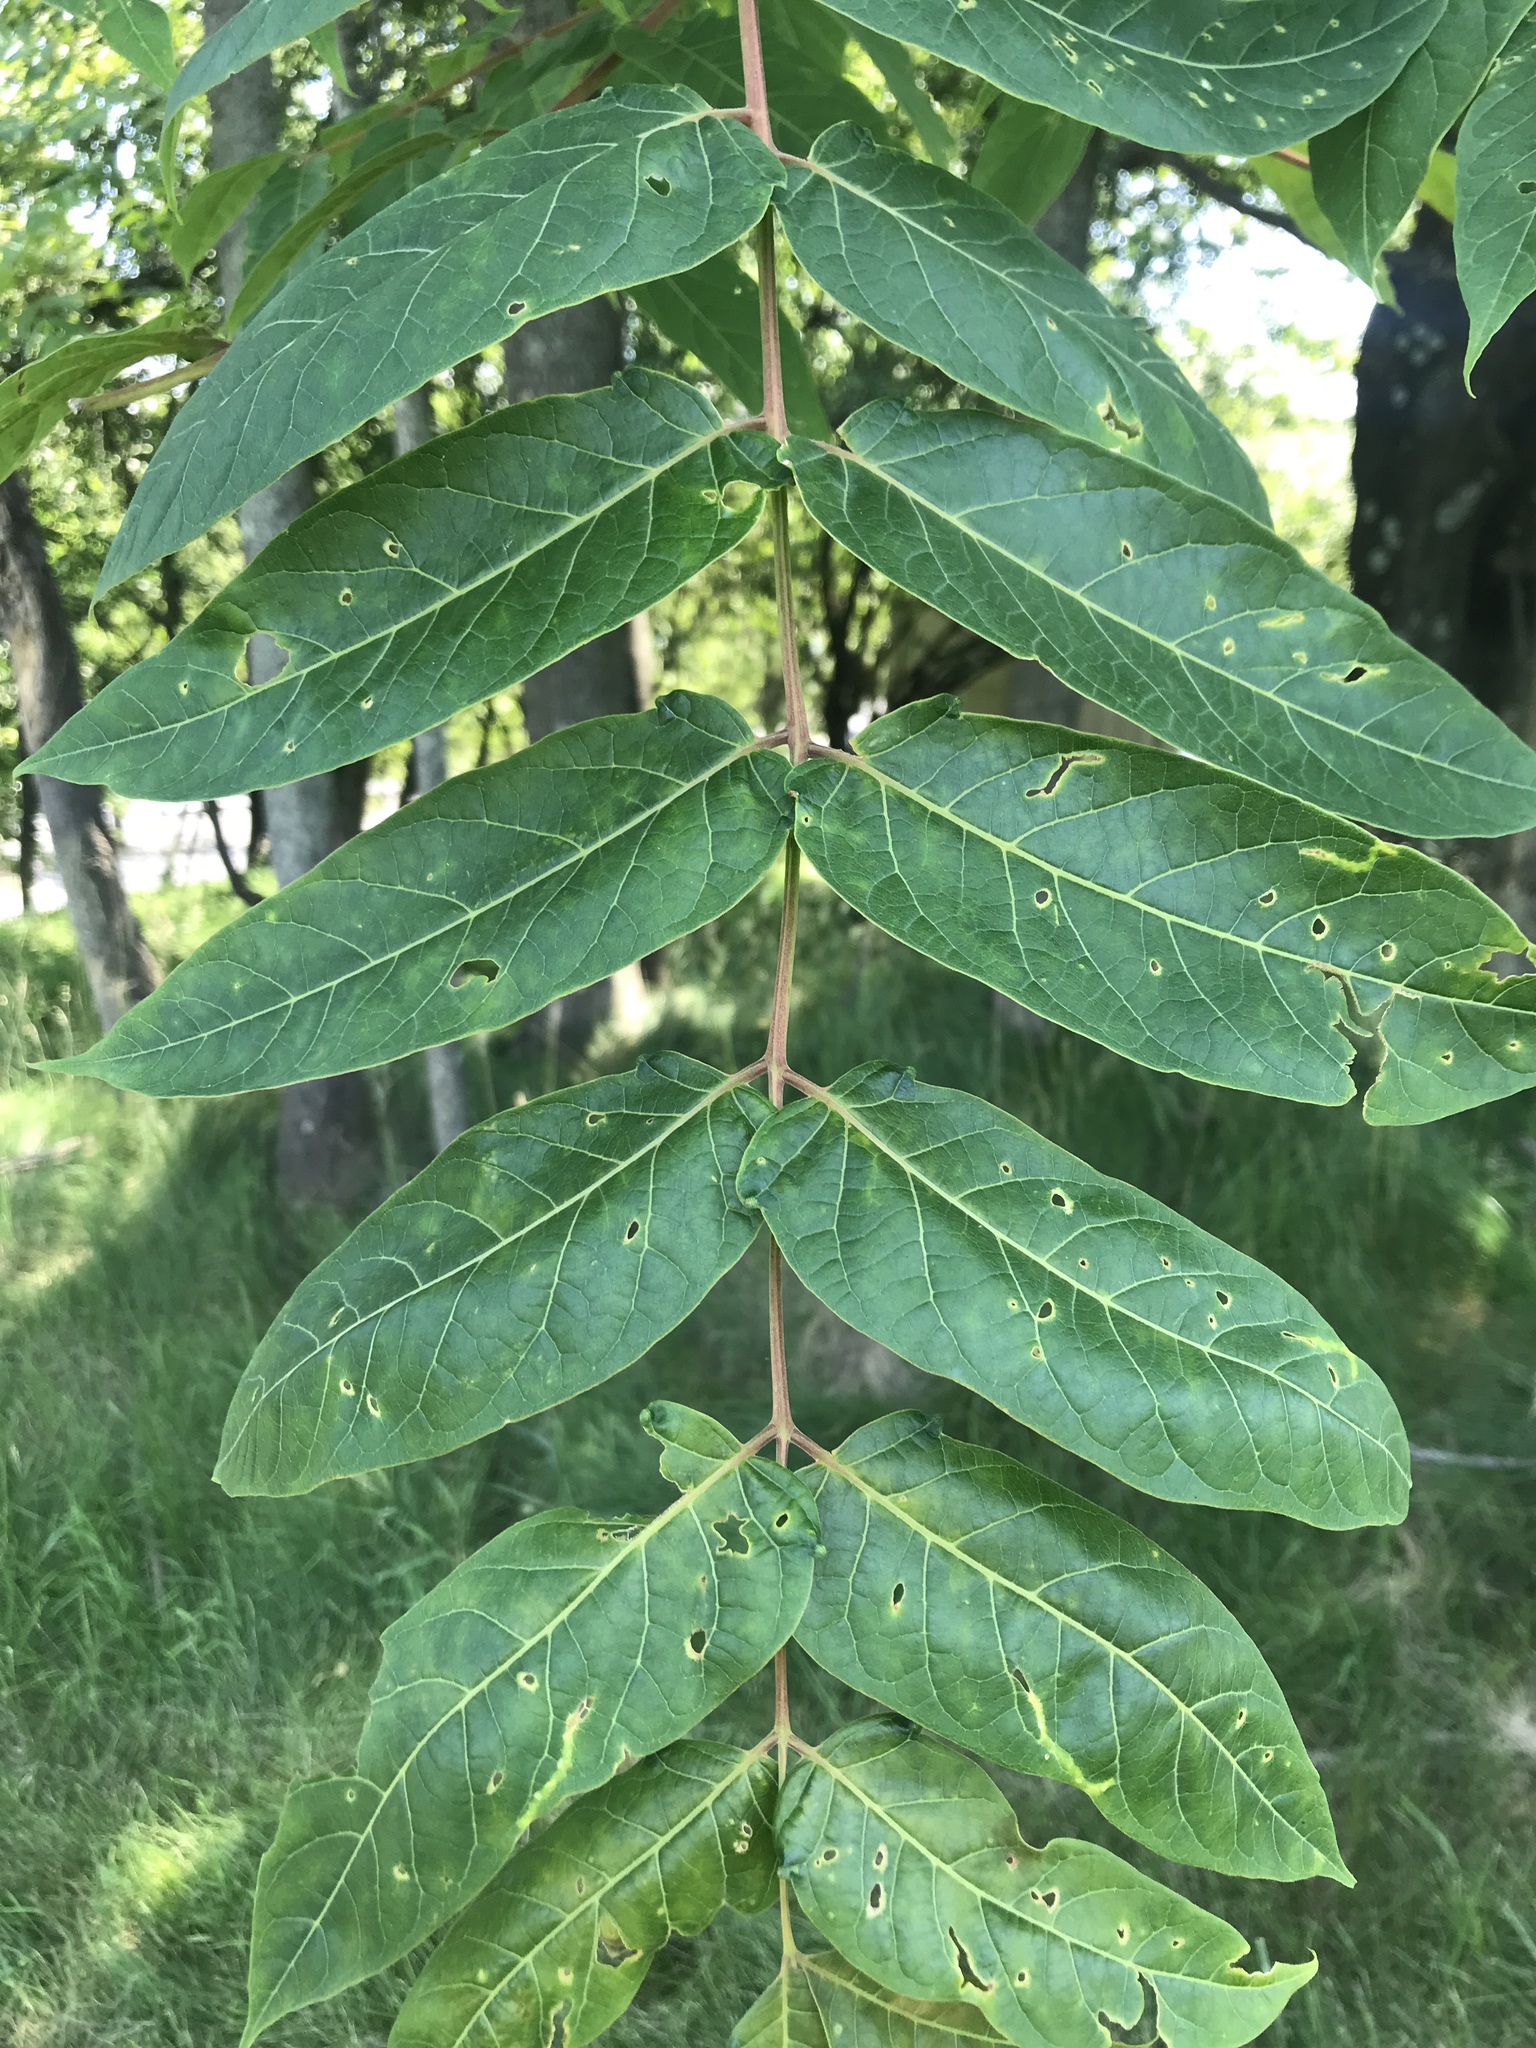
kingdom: Plantae
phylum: Tracheophyta
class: Magnoliopsida
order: Sapindales
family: Simaroubaceae
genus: Ailanthus
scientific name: Ailanthus altissima
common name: Tree-of-heaven
